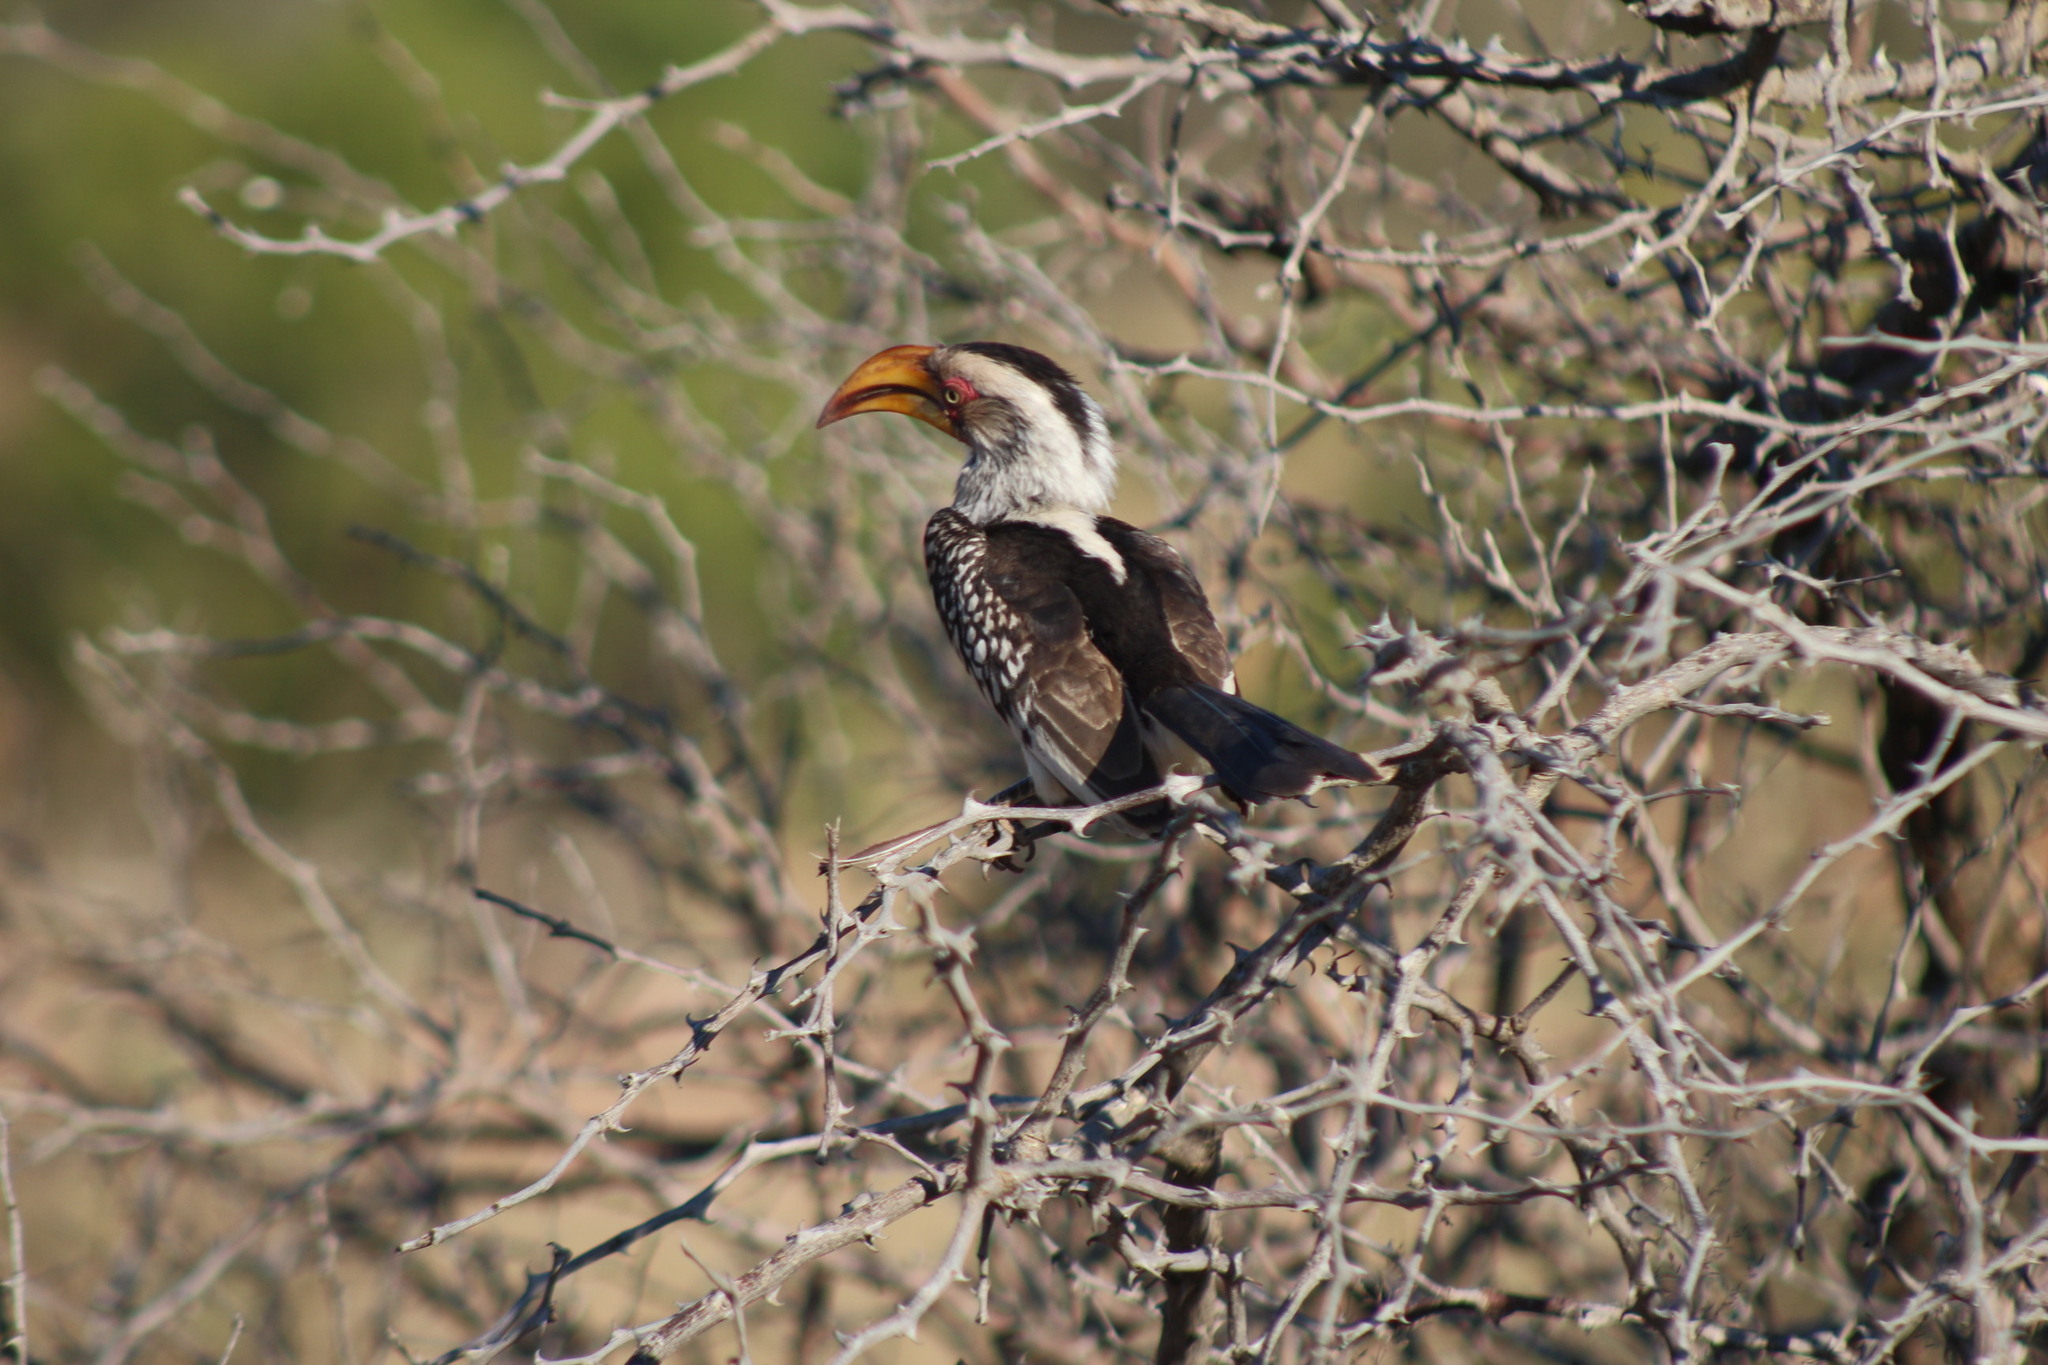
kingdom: Animalia
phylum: Chordata
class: Aves
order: Bucerotiformes
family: Bucerotidae
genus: Tockus
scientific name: Tockus leucomelas
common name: Southern yellow-billed hornbill
